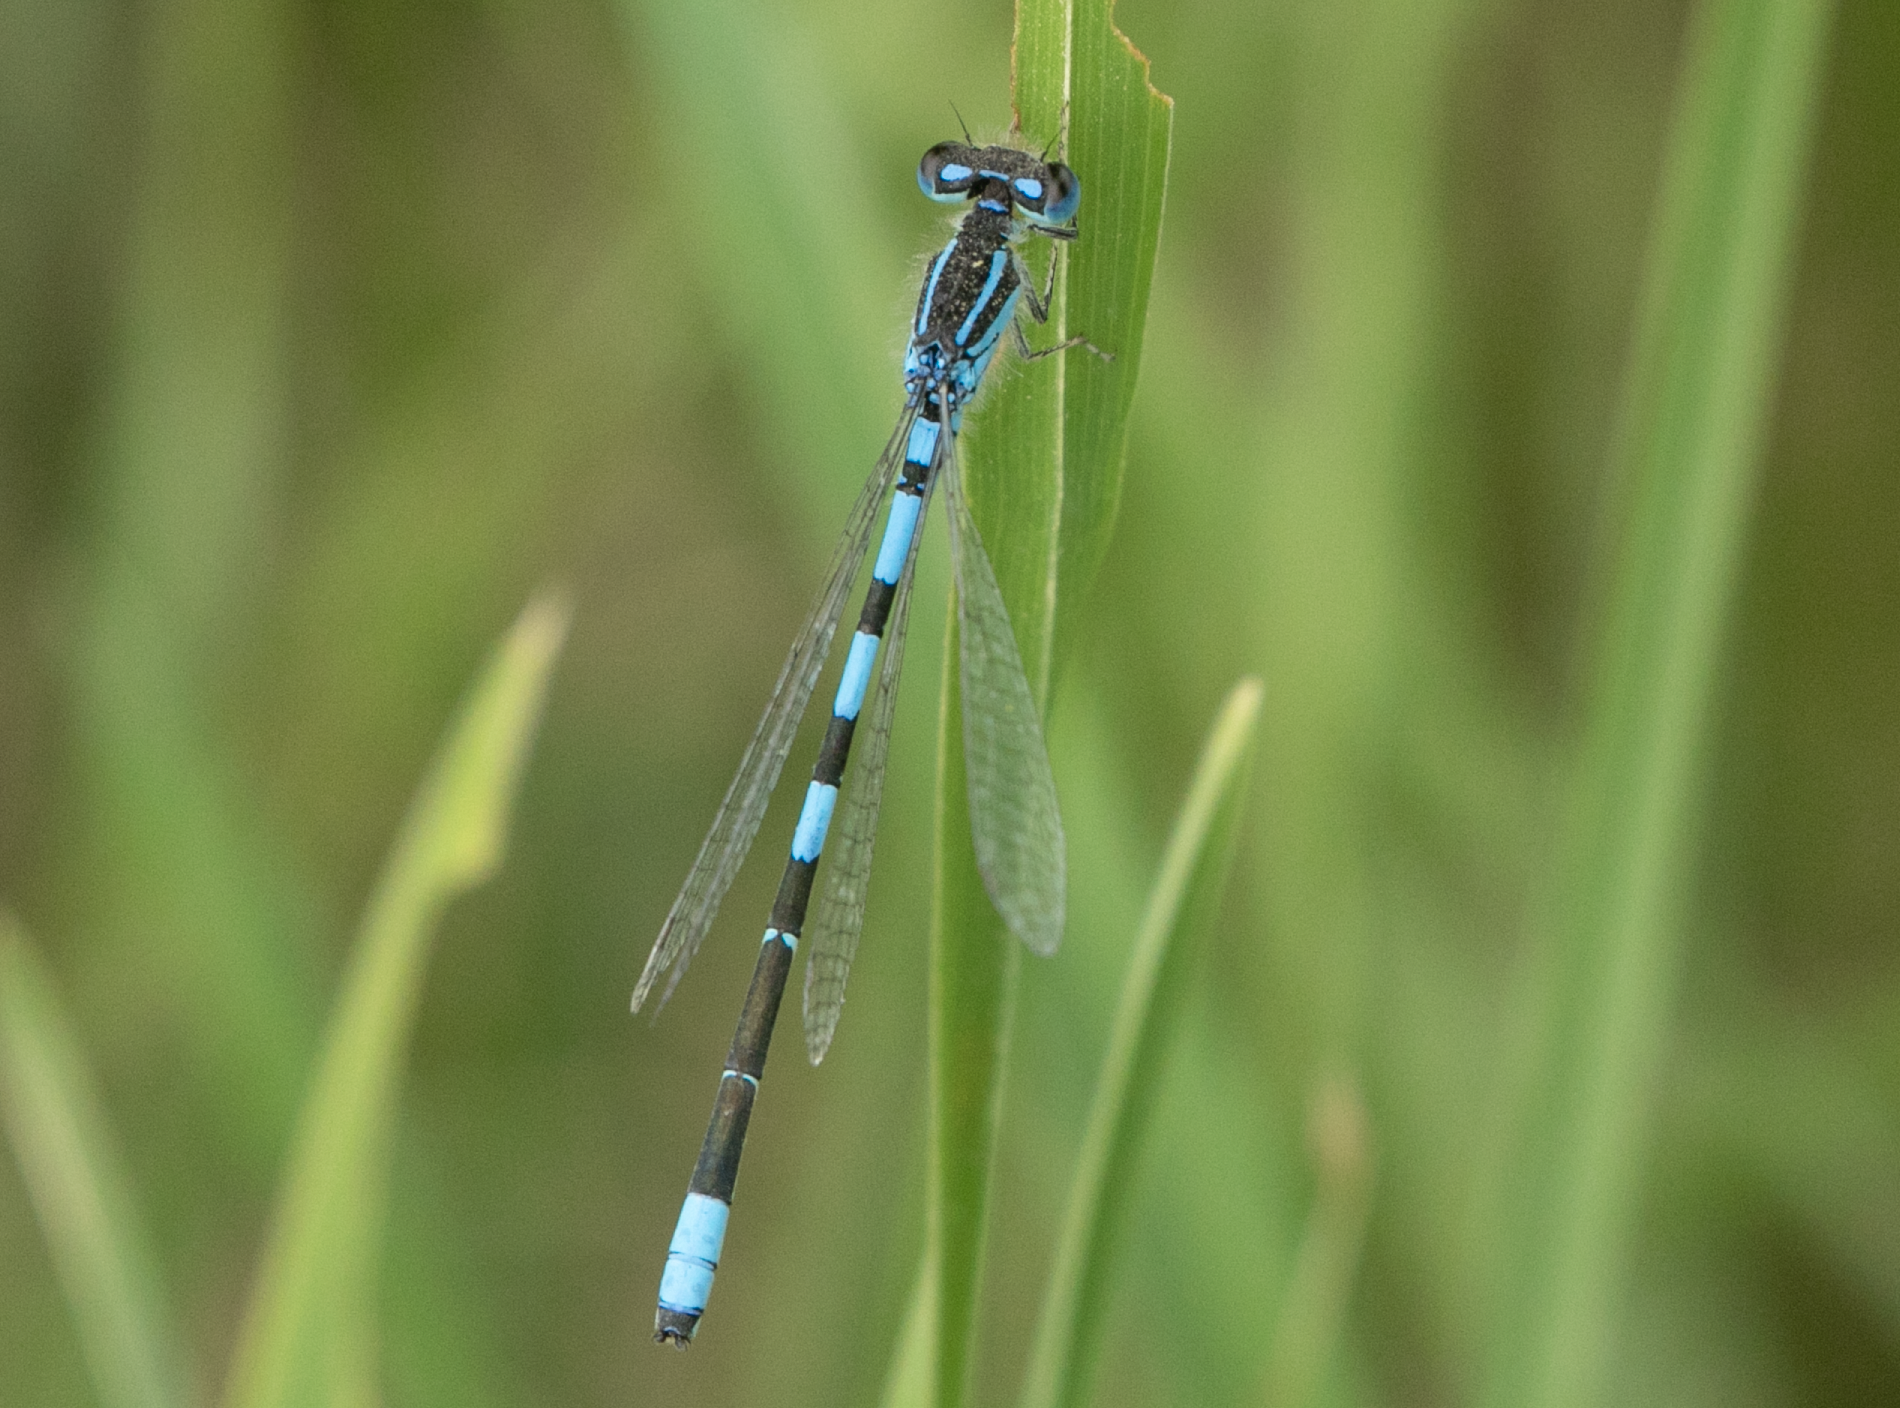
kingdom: Animalia
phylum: Arthropoda
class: Insecta
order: Odonata
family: Coenagrionidae
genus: Coenagrion
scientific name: Coenagrion scitulum
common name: Dainty bluet
